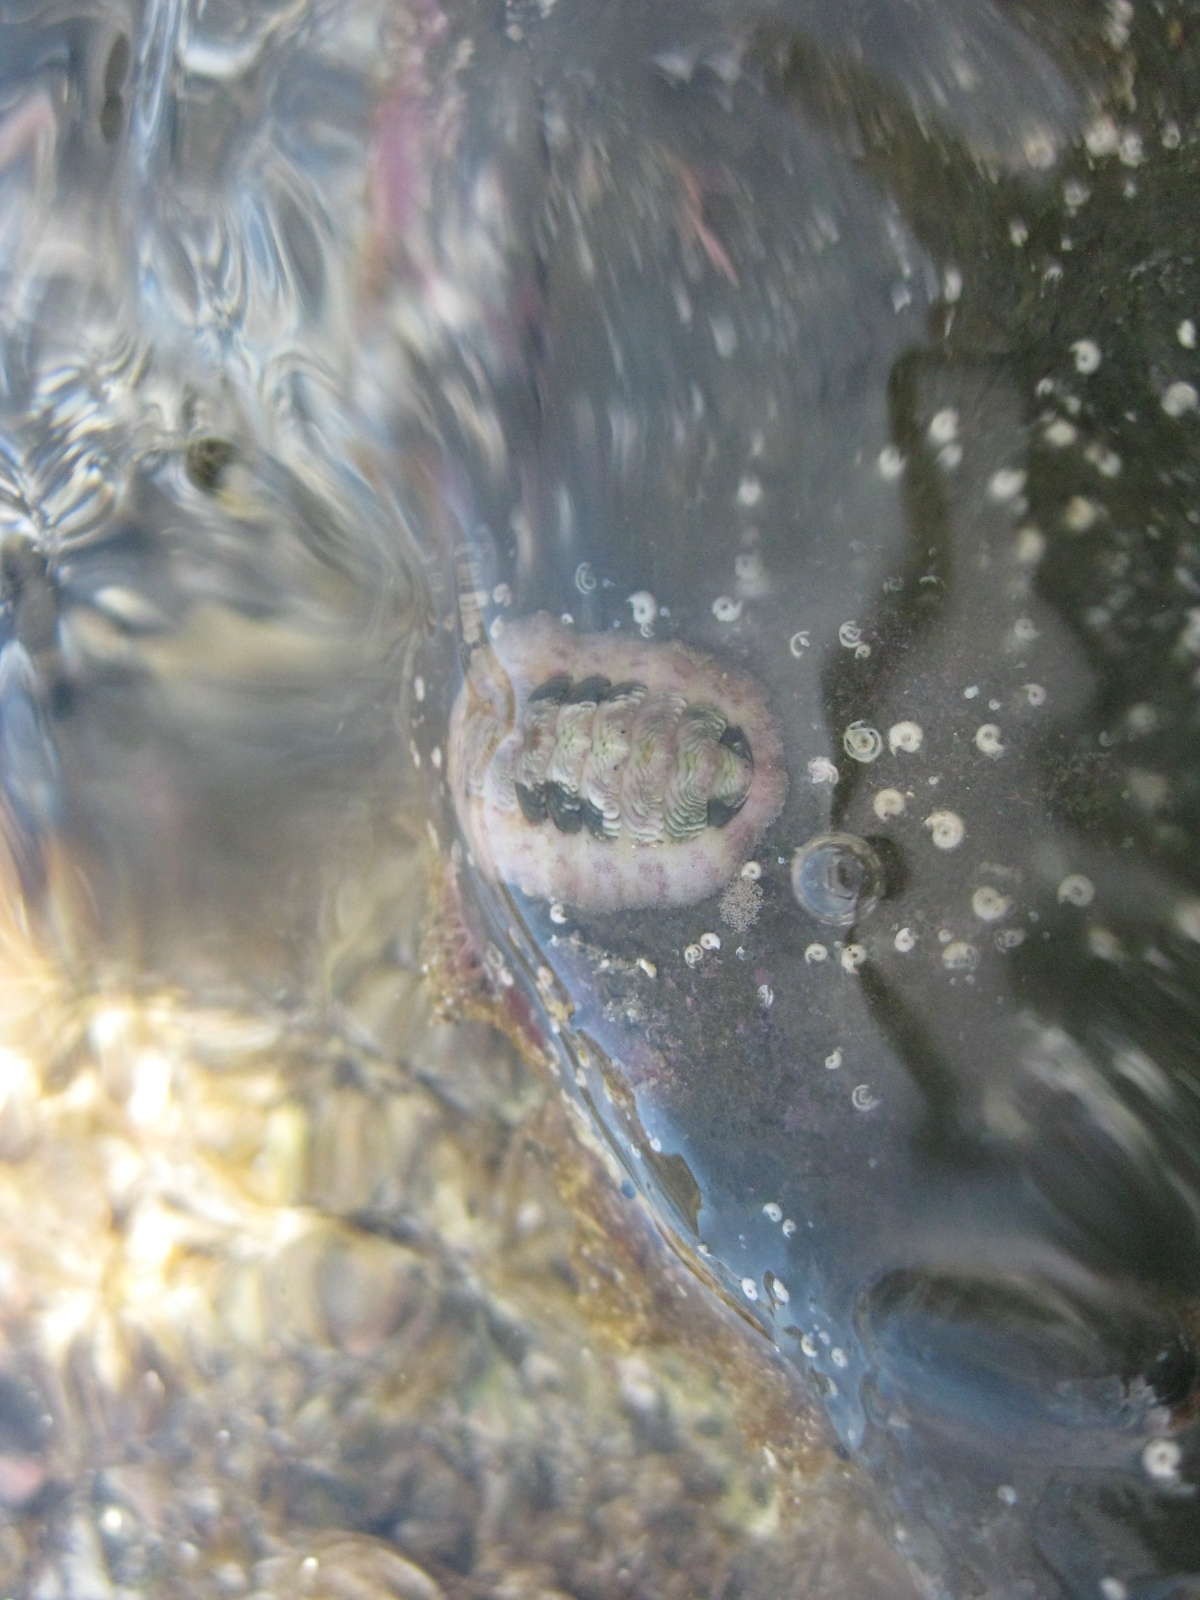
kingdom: Animalia
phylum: Mollusca
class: Polyplacophora
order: Chitonida
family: Chitonidae
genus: Onithochiton
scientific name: Onithochiton neglectus
